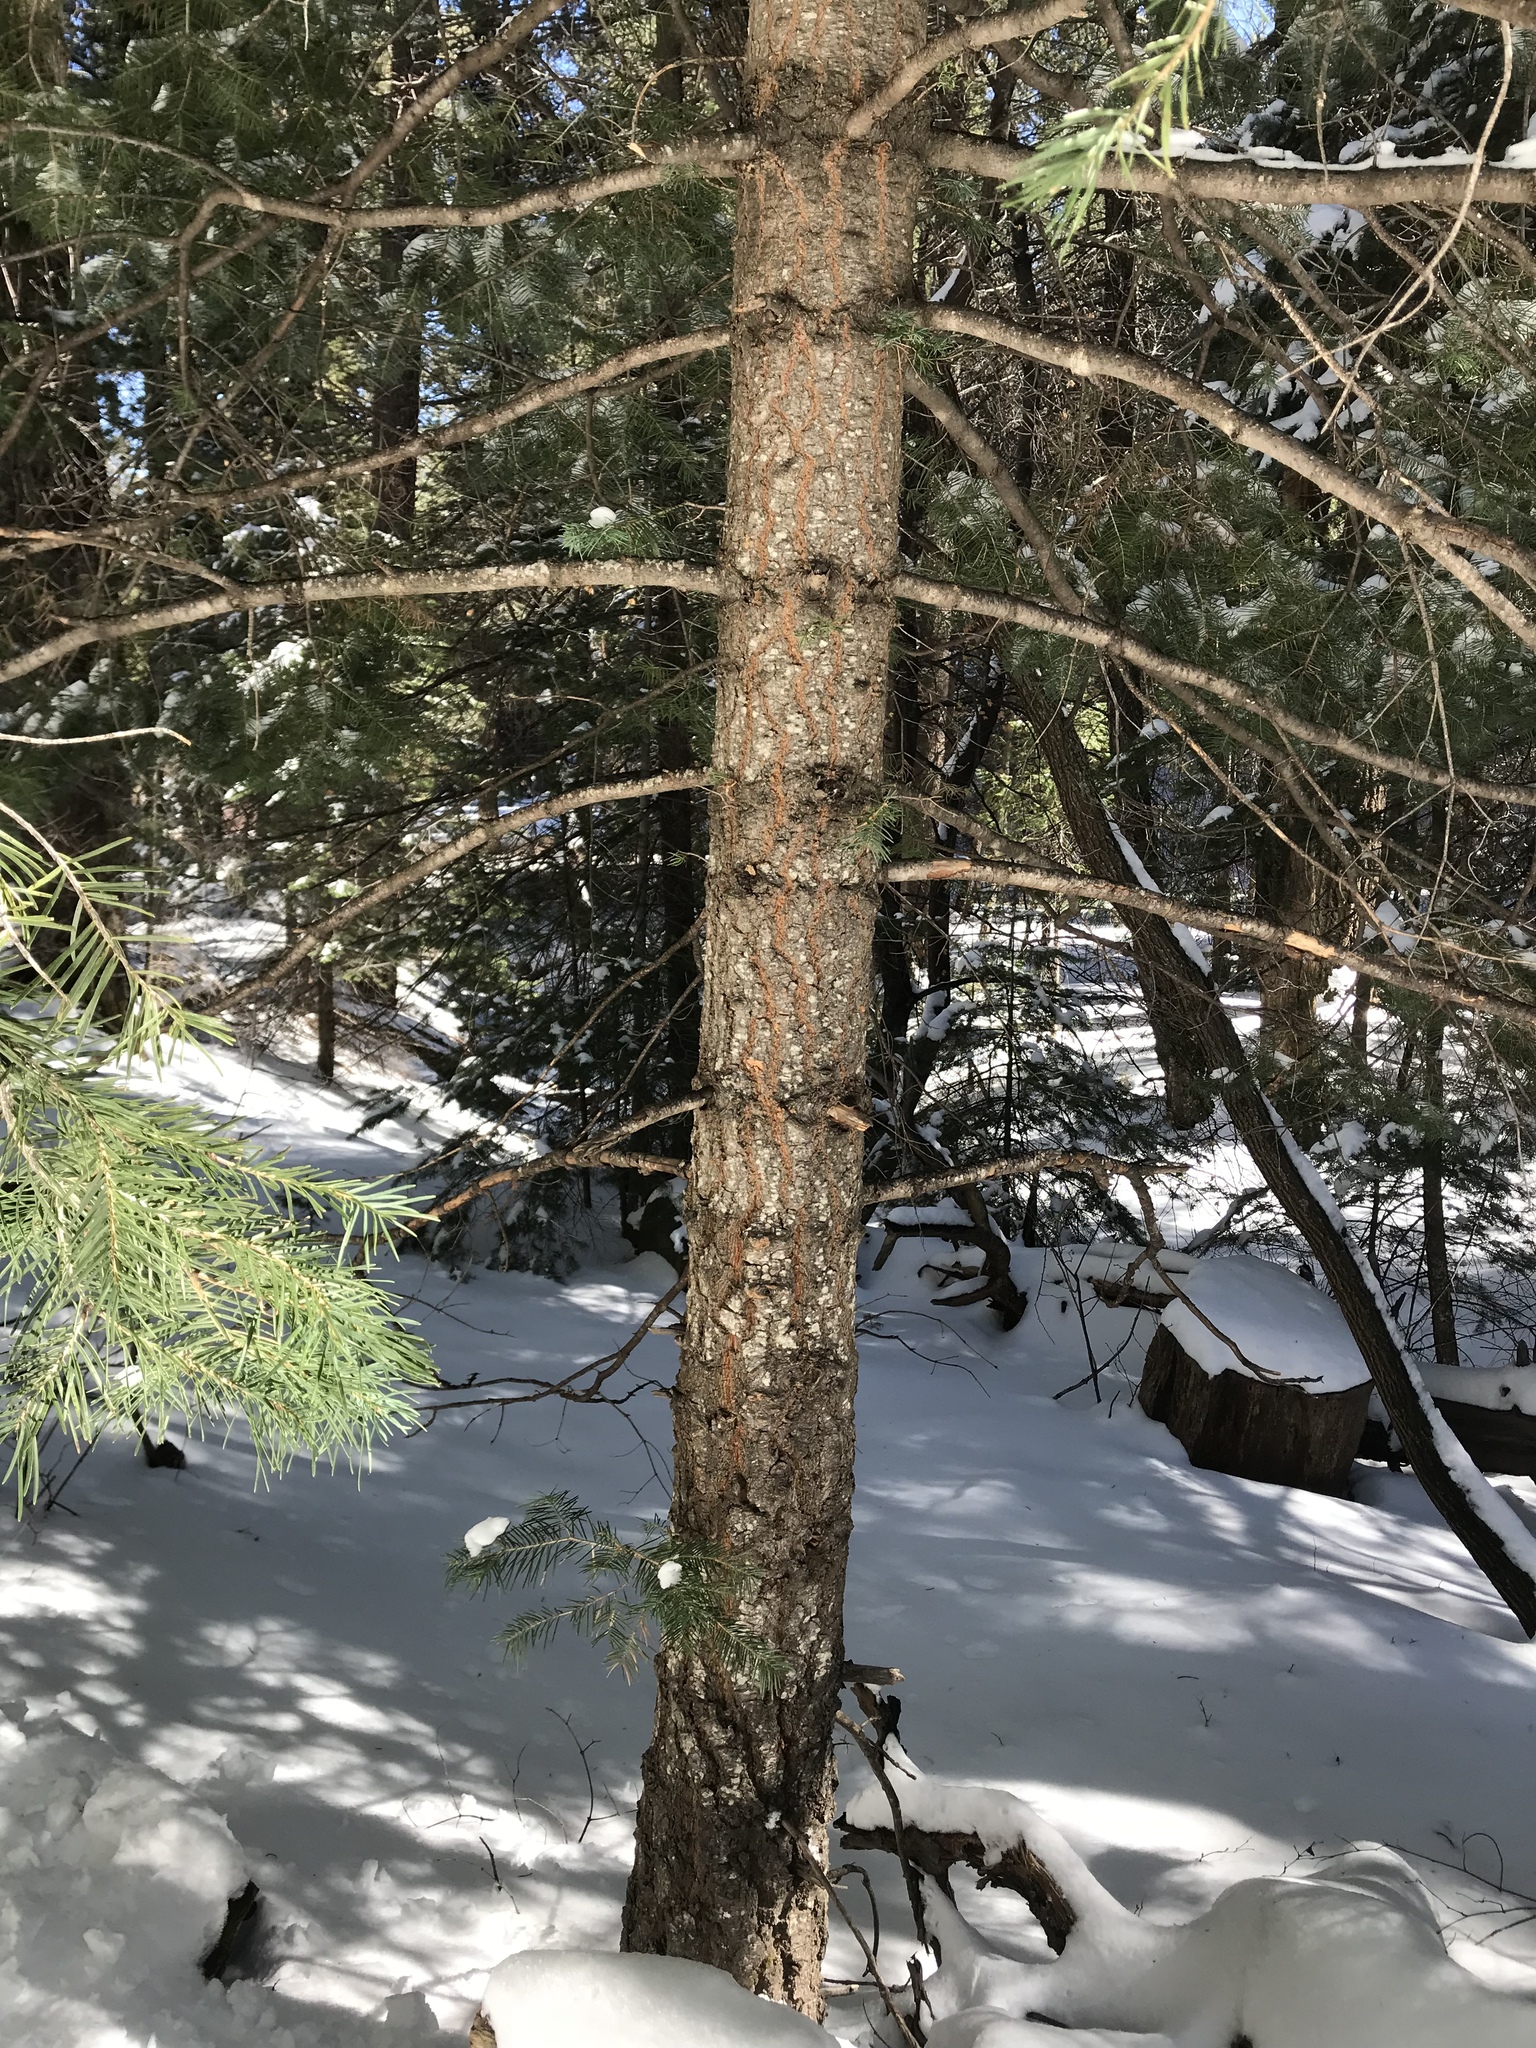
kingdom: Plantae
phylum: Tracheophyta
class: Pinopsida
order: Pinales
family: Pinaceae
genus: Abies
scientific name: Abies concolor
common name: Colorado fir
